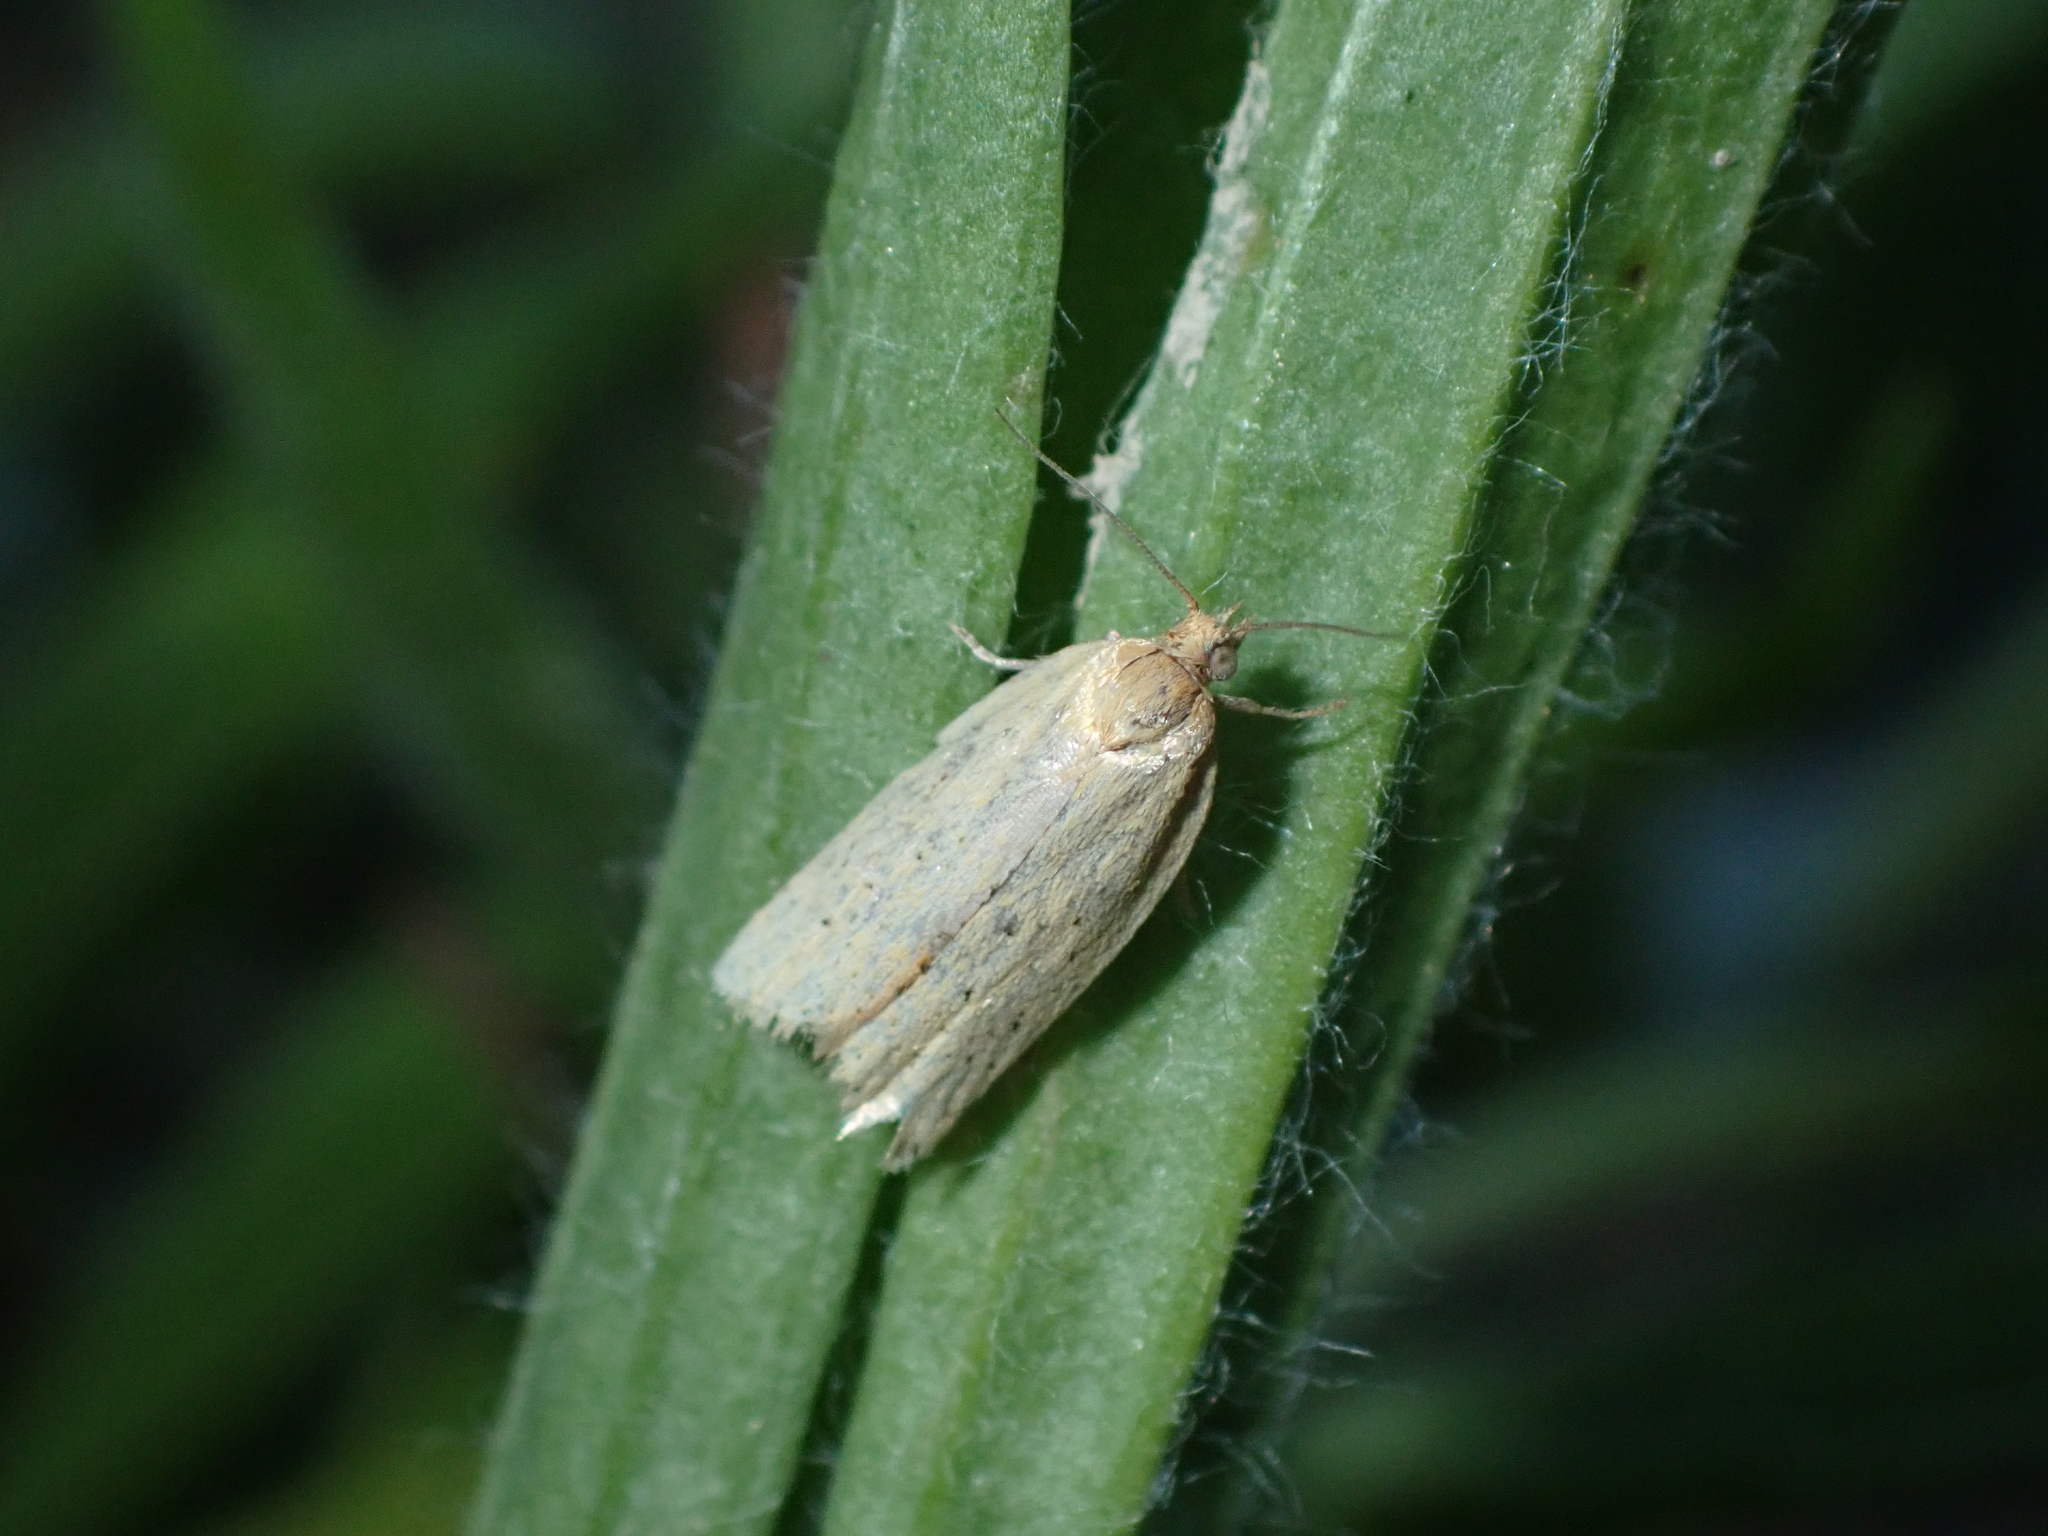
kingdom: Animalia
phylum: Arthropoda
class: Insecta
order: Lepidoptera
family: Tortricidae
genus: Clepsis
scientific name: Clepsis
